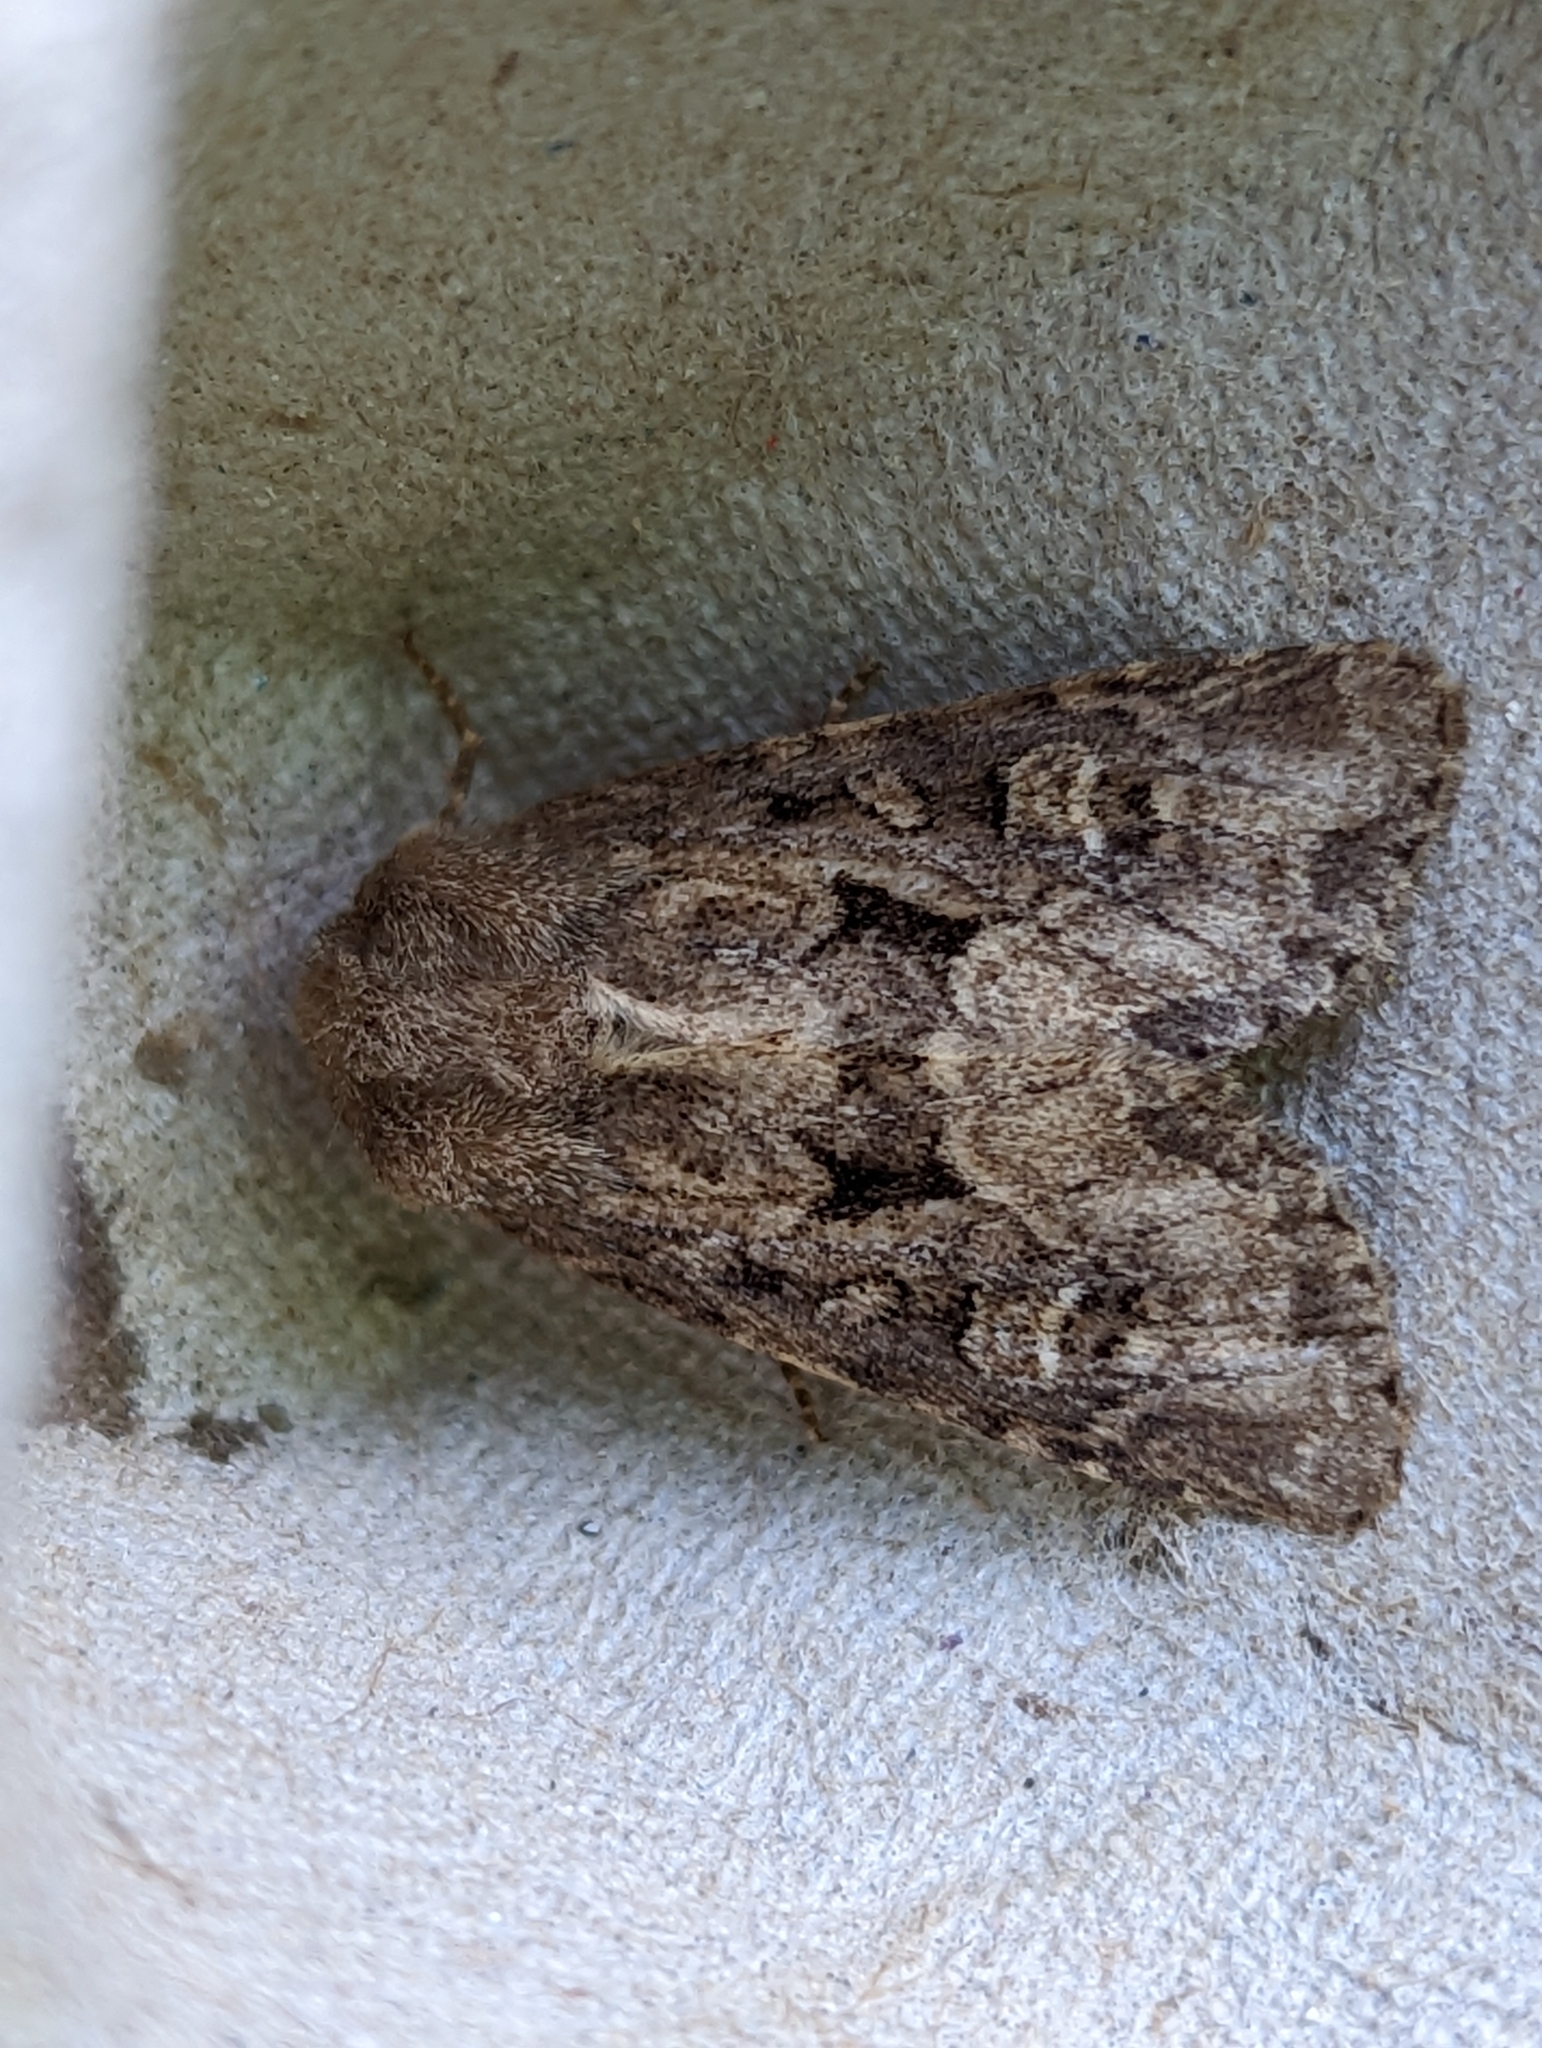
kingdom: Animalia
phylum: Arthropoda
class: Insecta
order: Lepidoptera
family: Noctuidae
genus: Luperina
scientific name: Luperina testacea
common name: Flounced rustic
